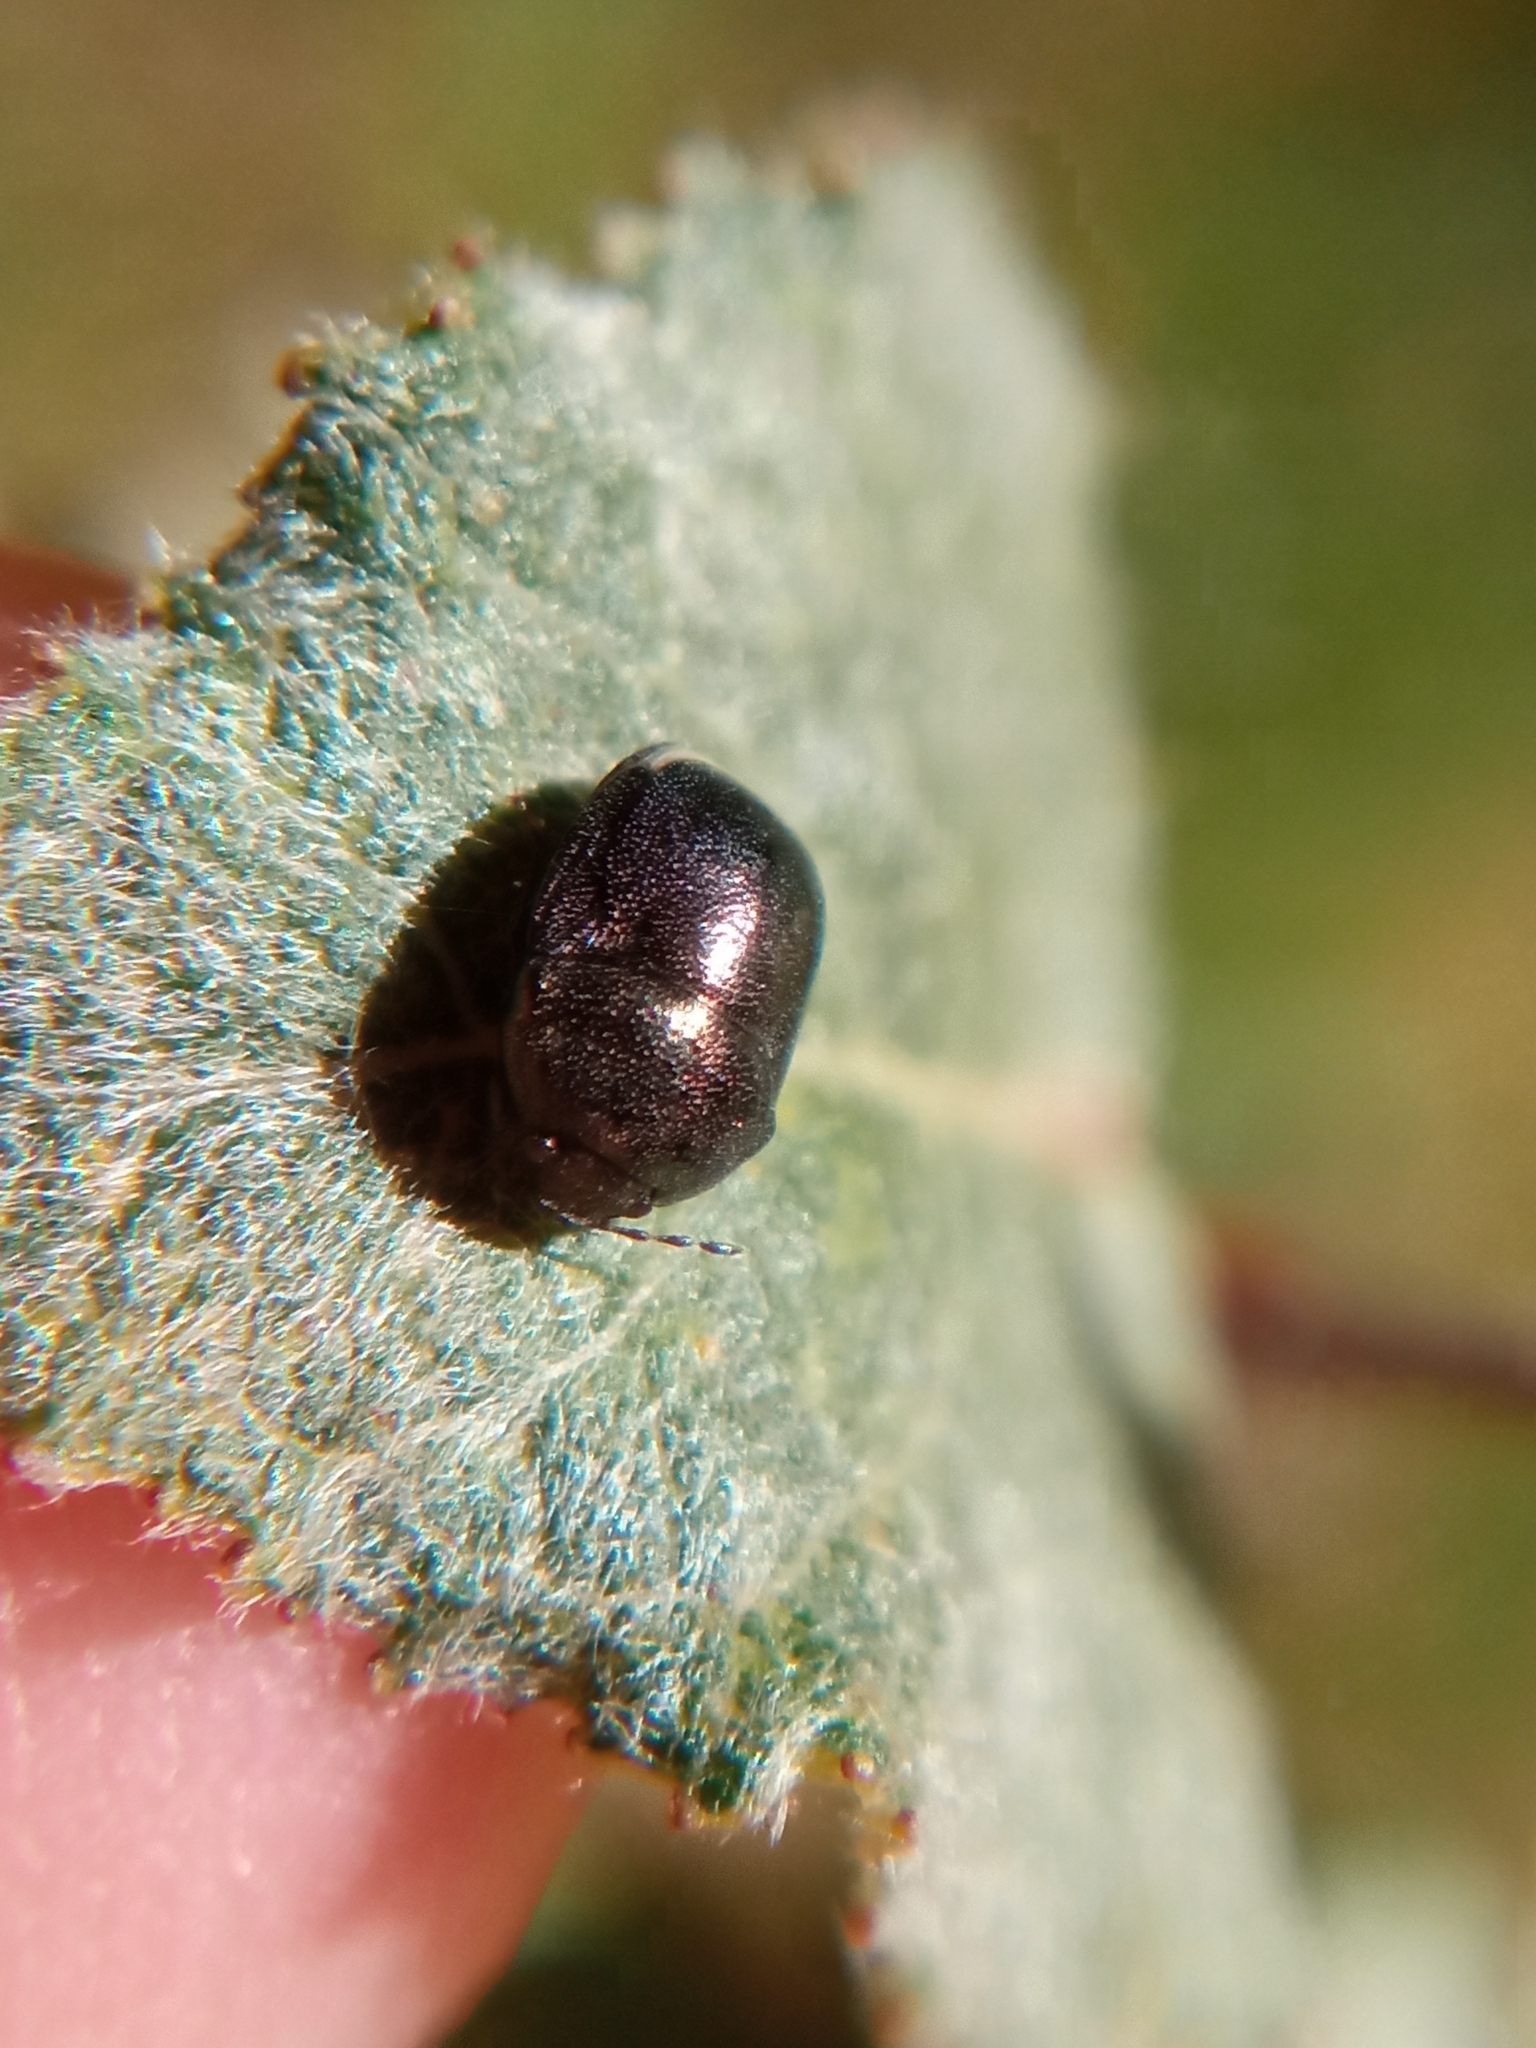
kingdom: Animalia
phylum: Arthropoda
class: Insecta
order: Hemiptera
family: Thyreocoridae
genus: Thyreocoris
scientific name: Thyreocoris scarabaeoides
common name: Negro bug
